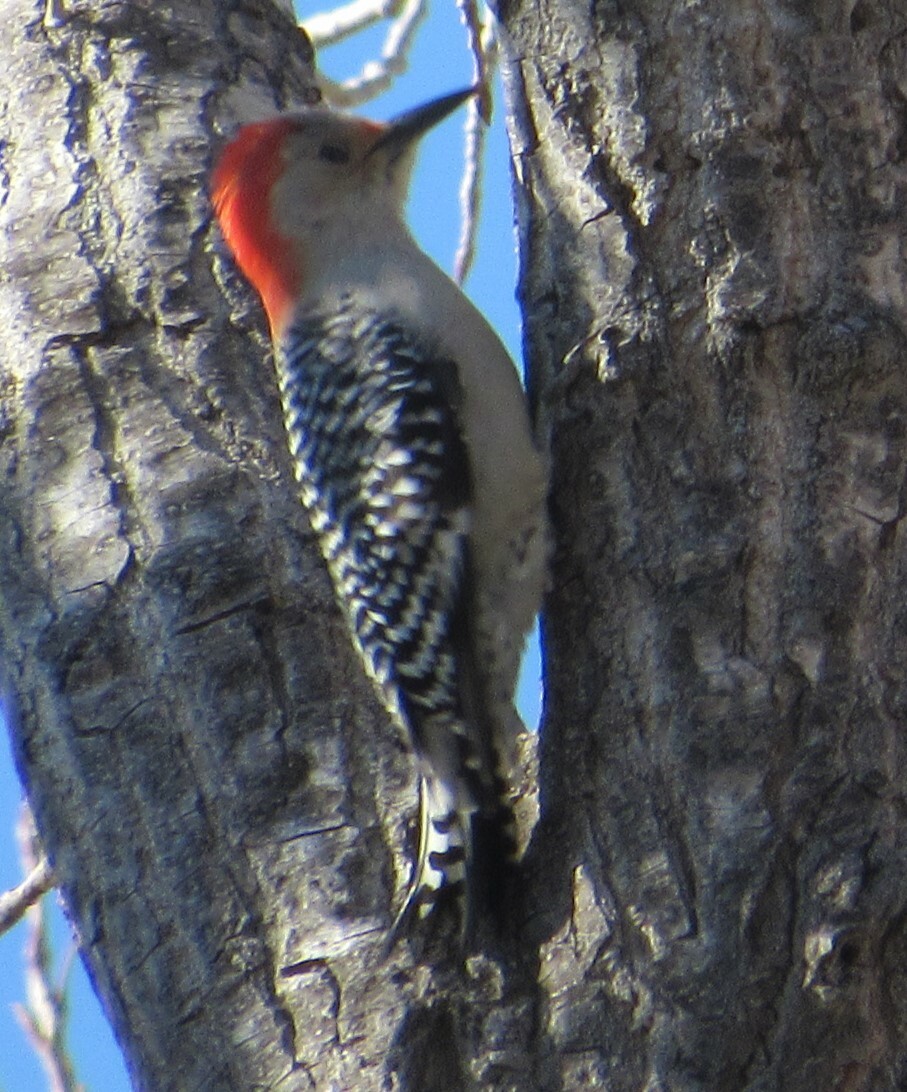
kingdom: Animalia
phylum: Chordata
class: Aves
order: Piciformes
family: Picidae
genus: Melanerpes
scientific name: Melanerpes carolinus
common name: Red-bellied woodpecker
